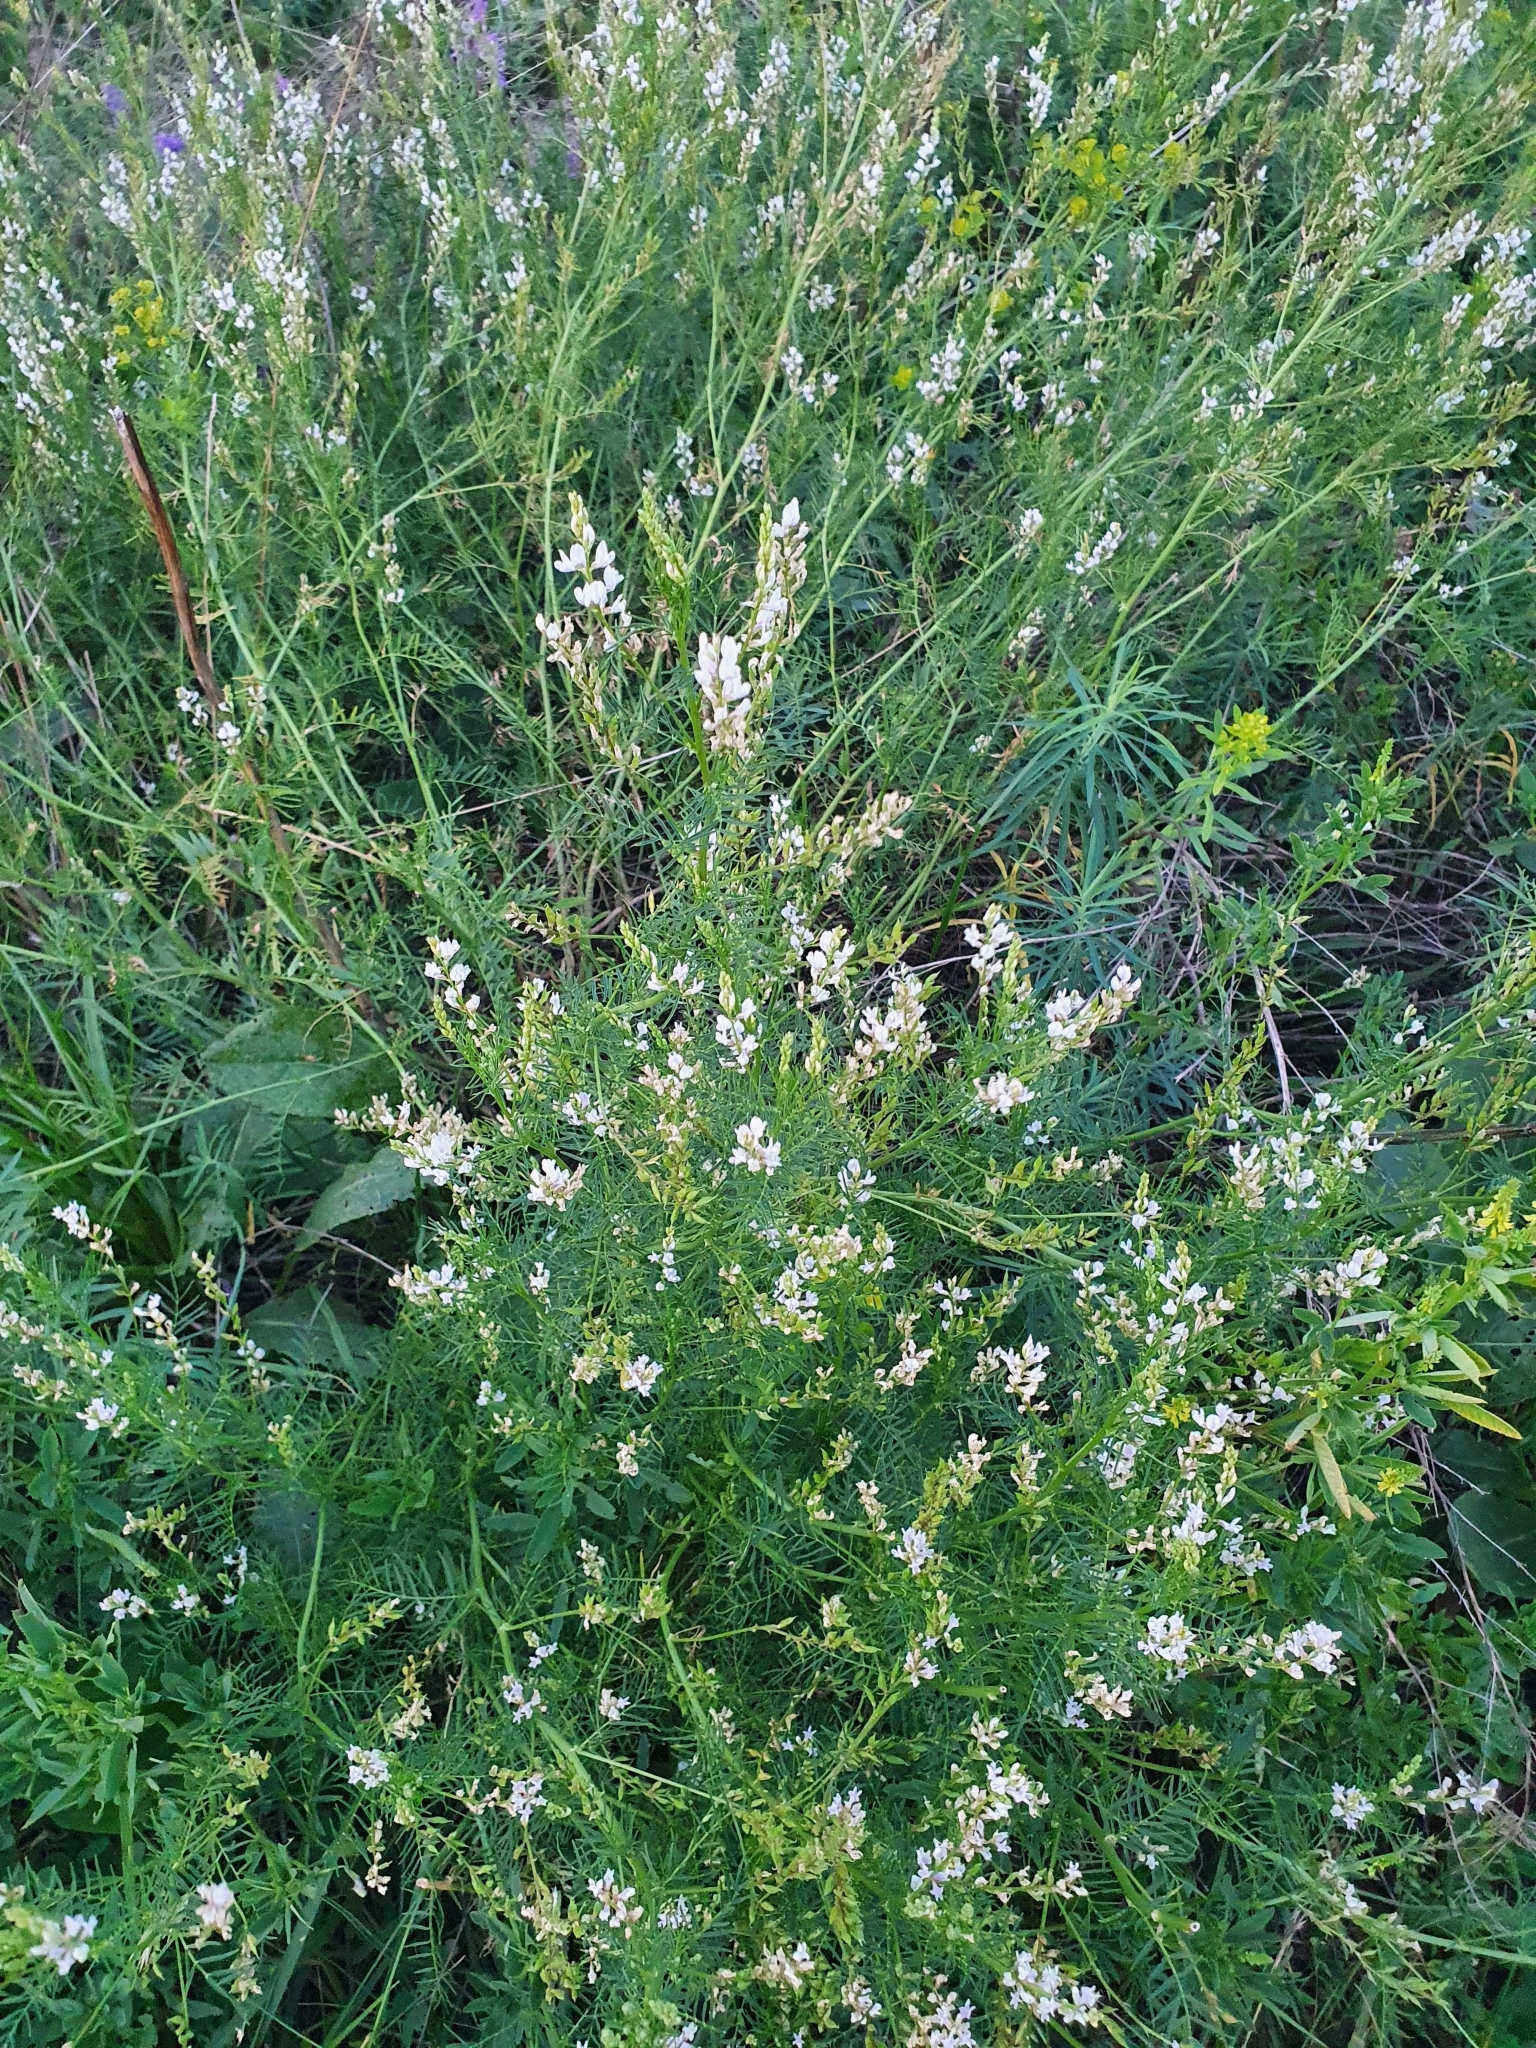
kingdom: Plantae
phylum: Tracheophyta
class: Magnoliopsida
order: Fabales
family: Fabaceae
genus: Astragalus
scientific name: Astragalus sulcatus
